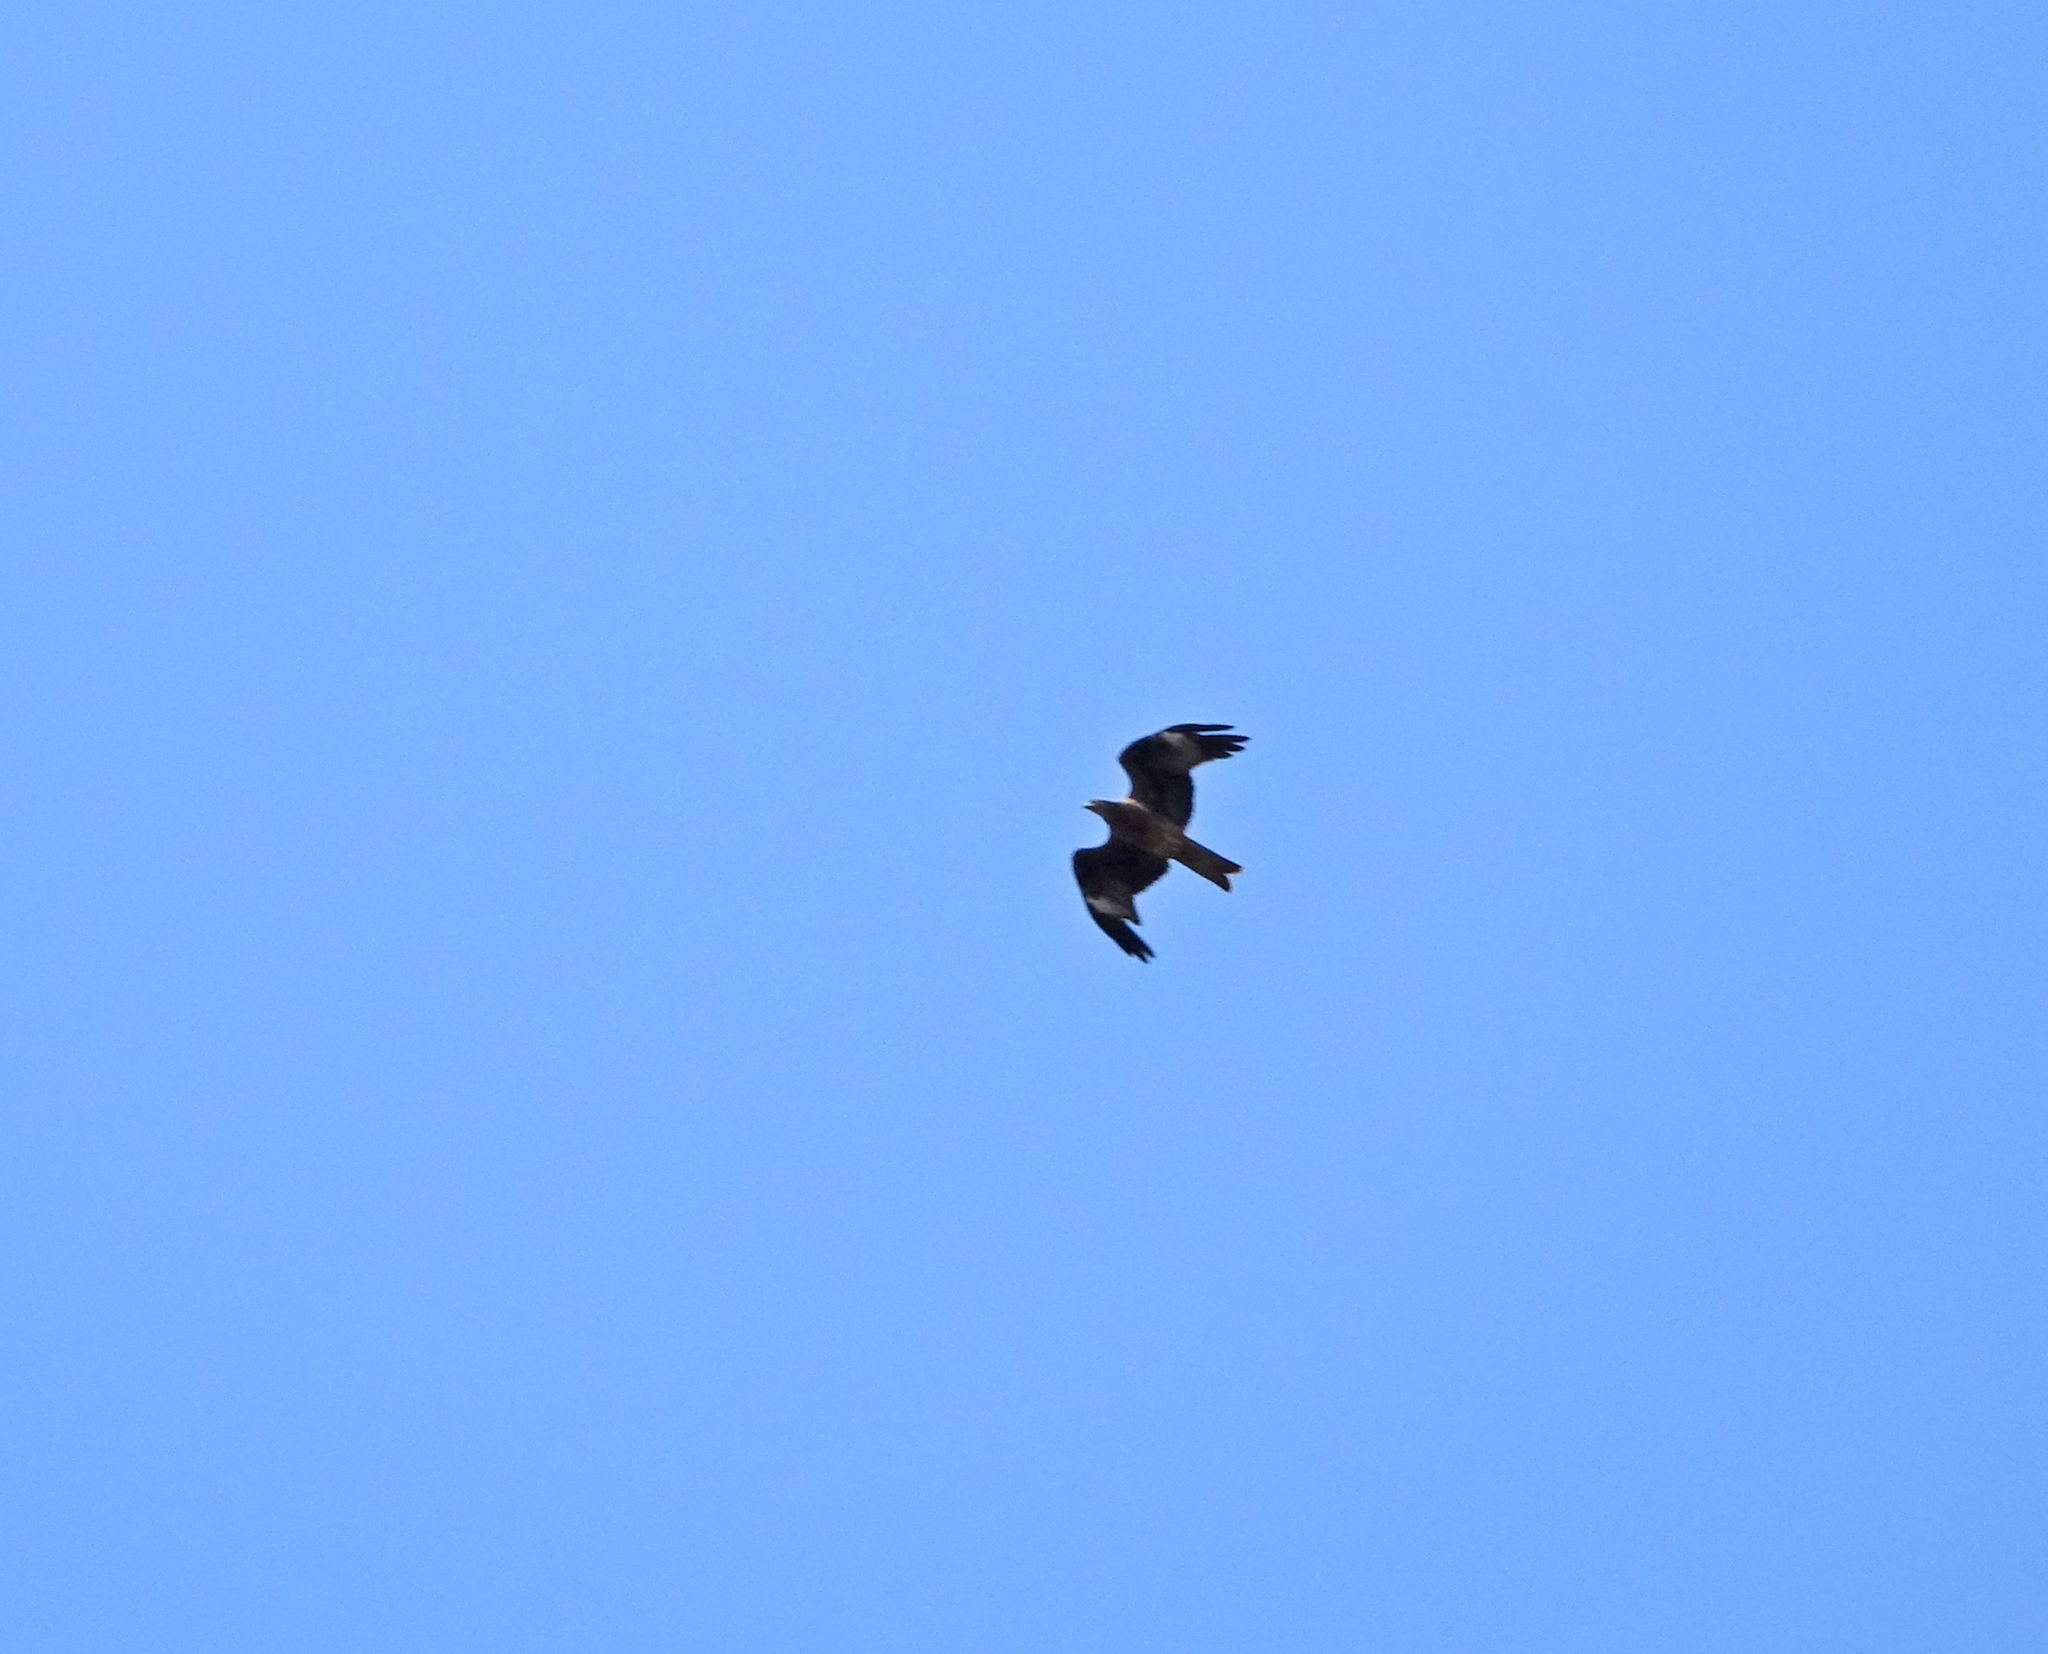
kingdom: Animalia
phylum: Chordata
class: Aves
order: Accipitriformes
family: Accipitridae
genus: Milvus
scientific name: Milvus migrans
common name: Black kite
